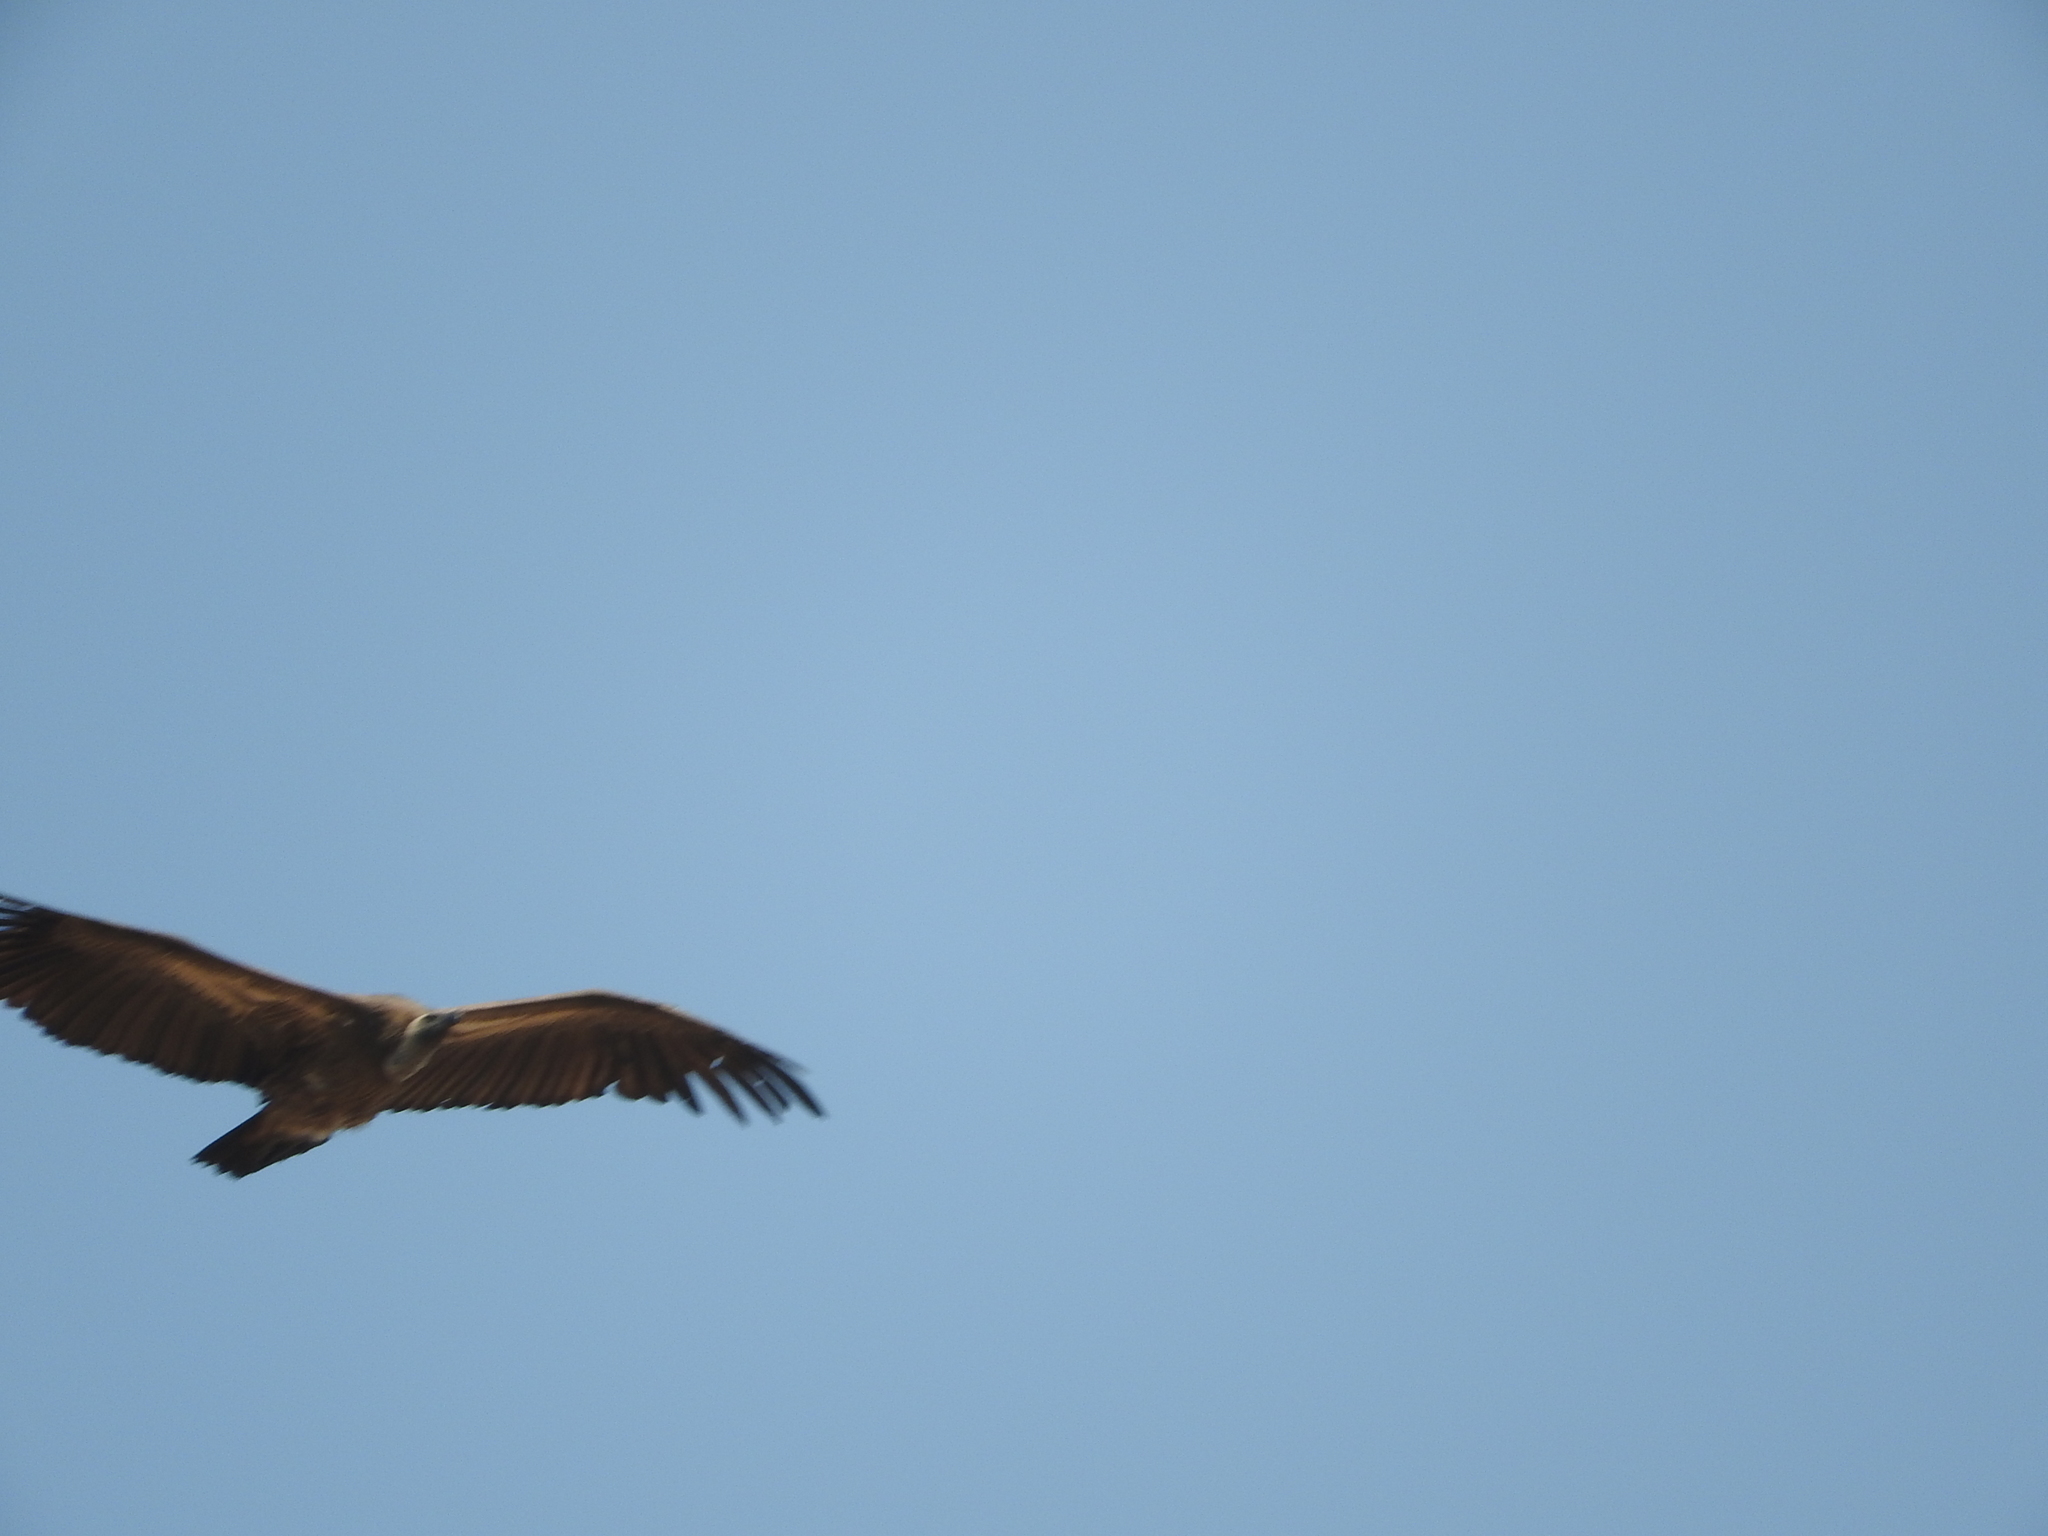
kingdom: Animalia
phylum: Chordata
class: Aves
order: Accipitriformes
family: Accipitridae
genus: Gyps
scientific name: Gyps africanus
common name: White-backed vulture
